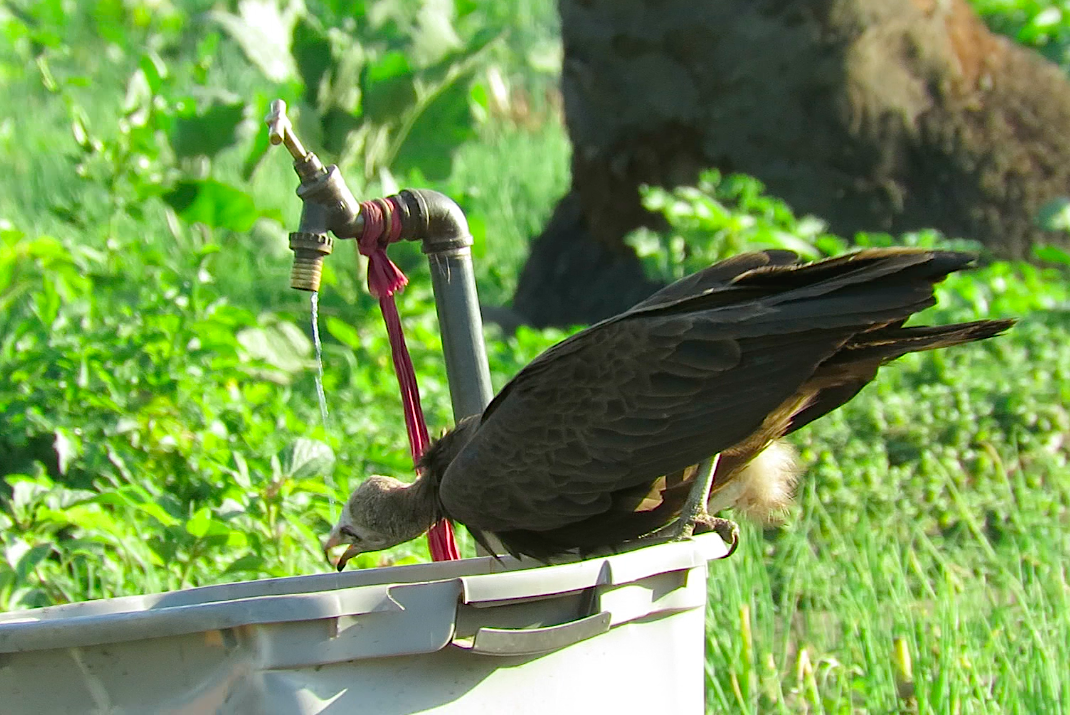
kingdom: Animalia
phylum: Chordata
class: Aves
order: Accipitriformes
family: Accipitridae
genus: Necrosyrtes
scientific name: Necrosyrtes monachus
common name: Hooded vulture
